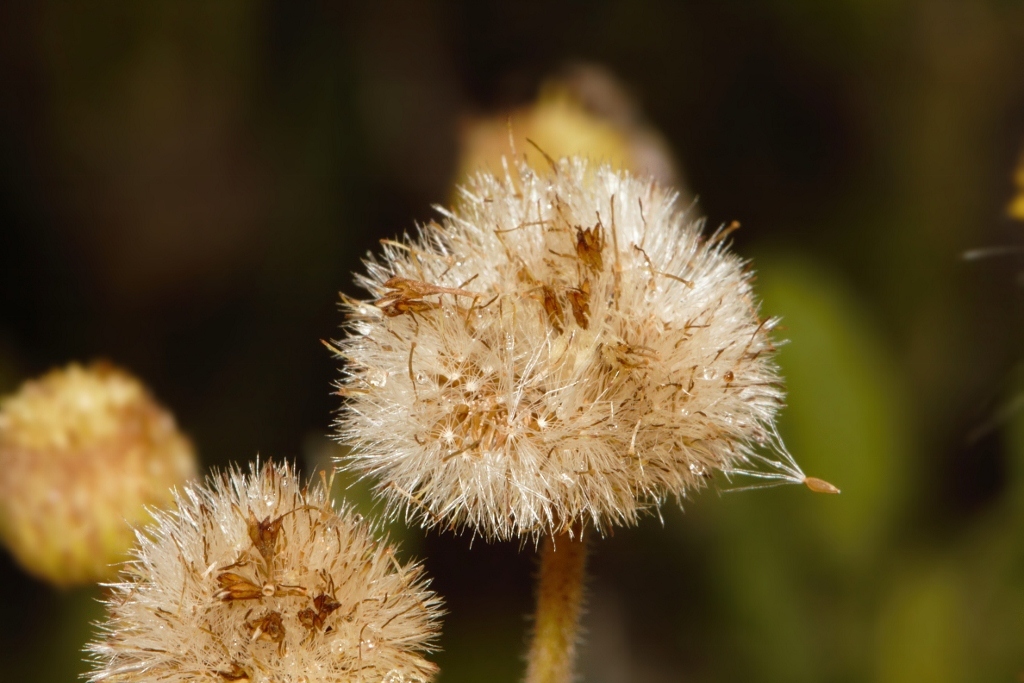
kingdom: Plantae
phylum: Tracheophyta
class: Magnoliopsida
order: Asterales
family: Asteraceae
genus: Eschenbachia
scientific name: Eschenbachia ulmifolia
